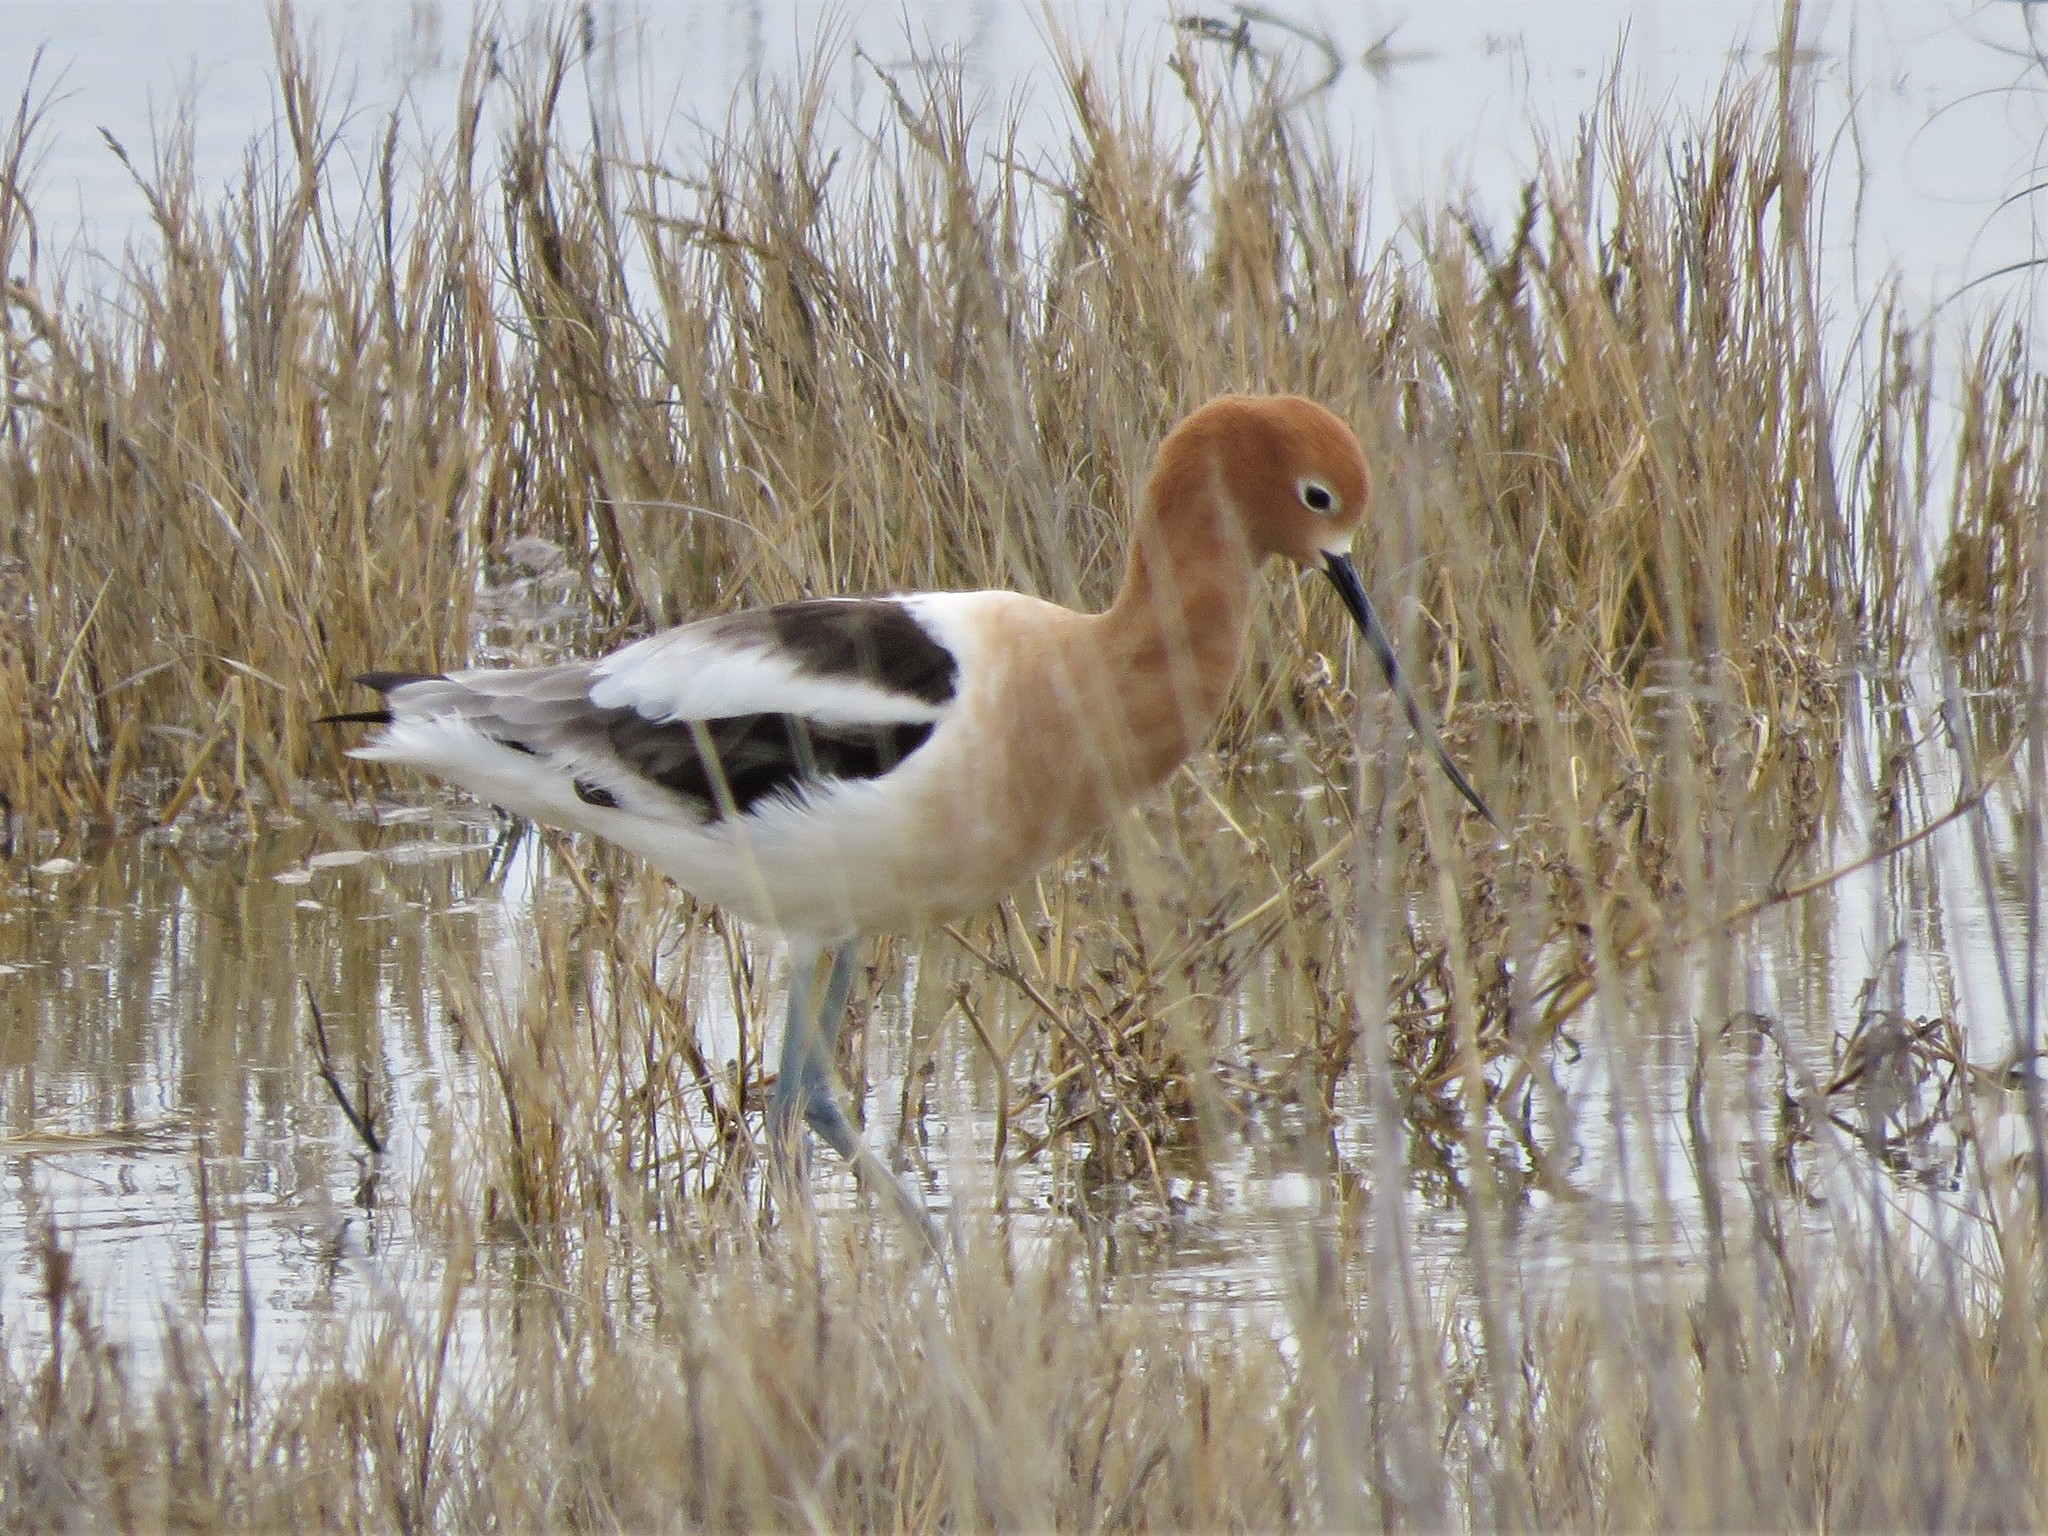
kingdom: Animalia
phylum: Chordata
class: Aves
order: Charadriiformes
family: Recurvirostridae
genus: Recurvirostra
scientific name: Recurvirostra americana
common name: American avocet
